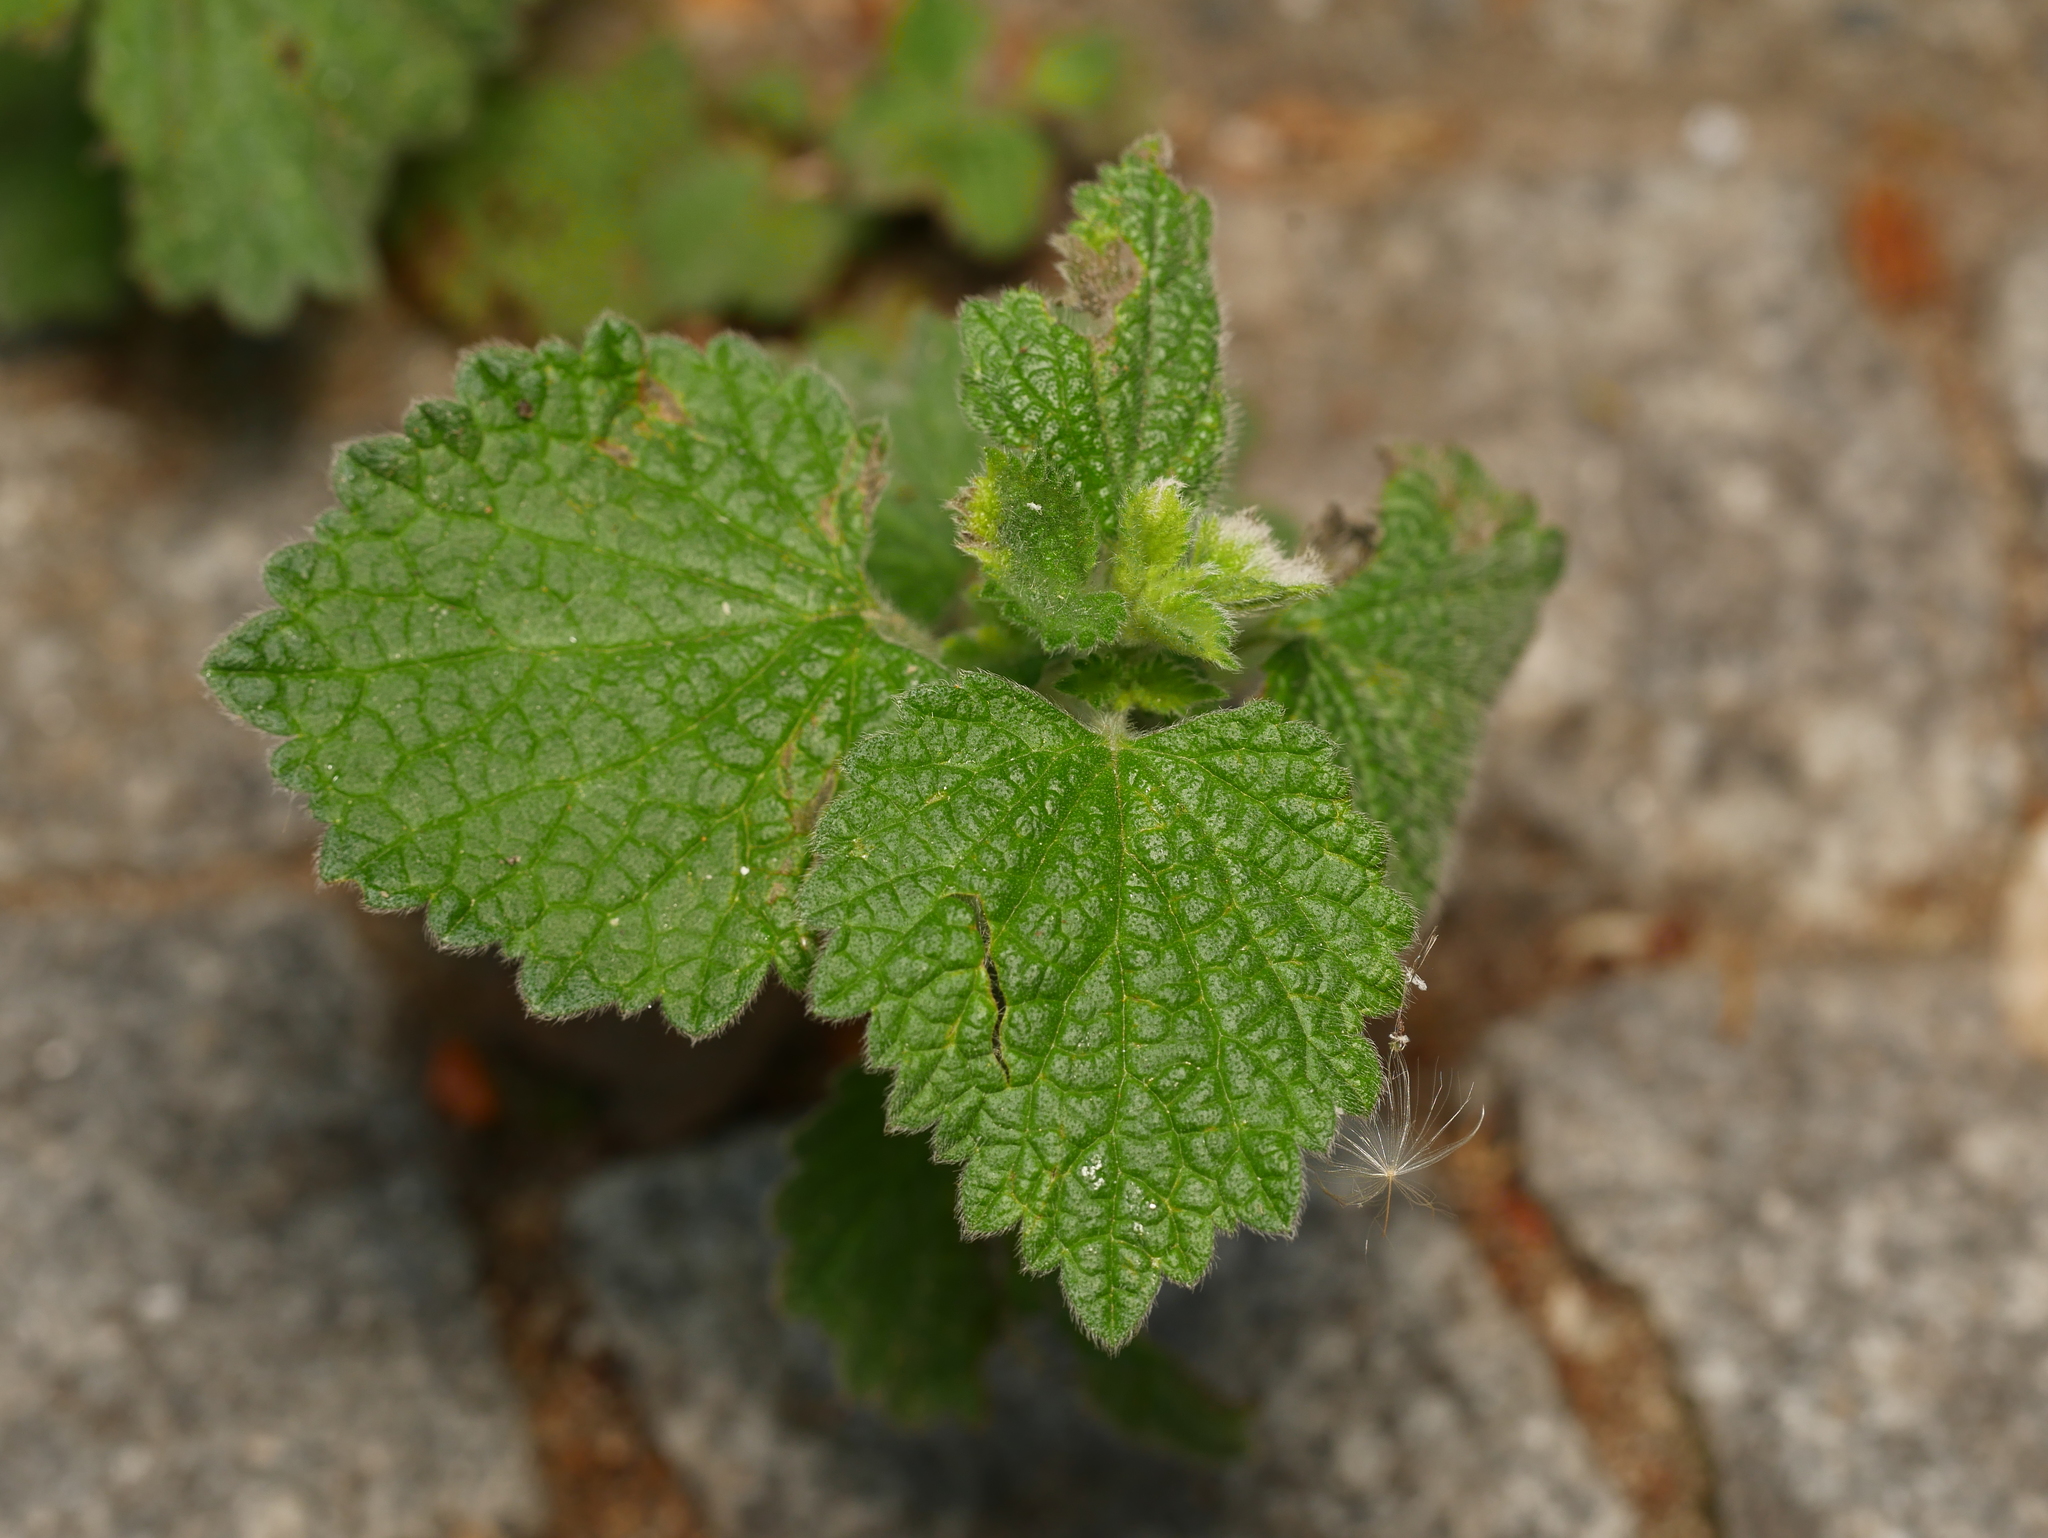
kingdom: Plantae
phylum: Tracheophyta
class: Magnoliopsida
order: Lamiales
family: Lamiaceae
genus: Ballota
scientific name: Ballota nigra
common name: Black horehound
